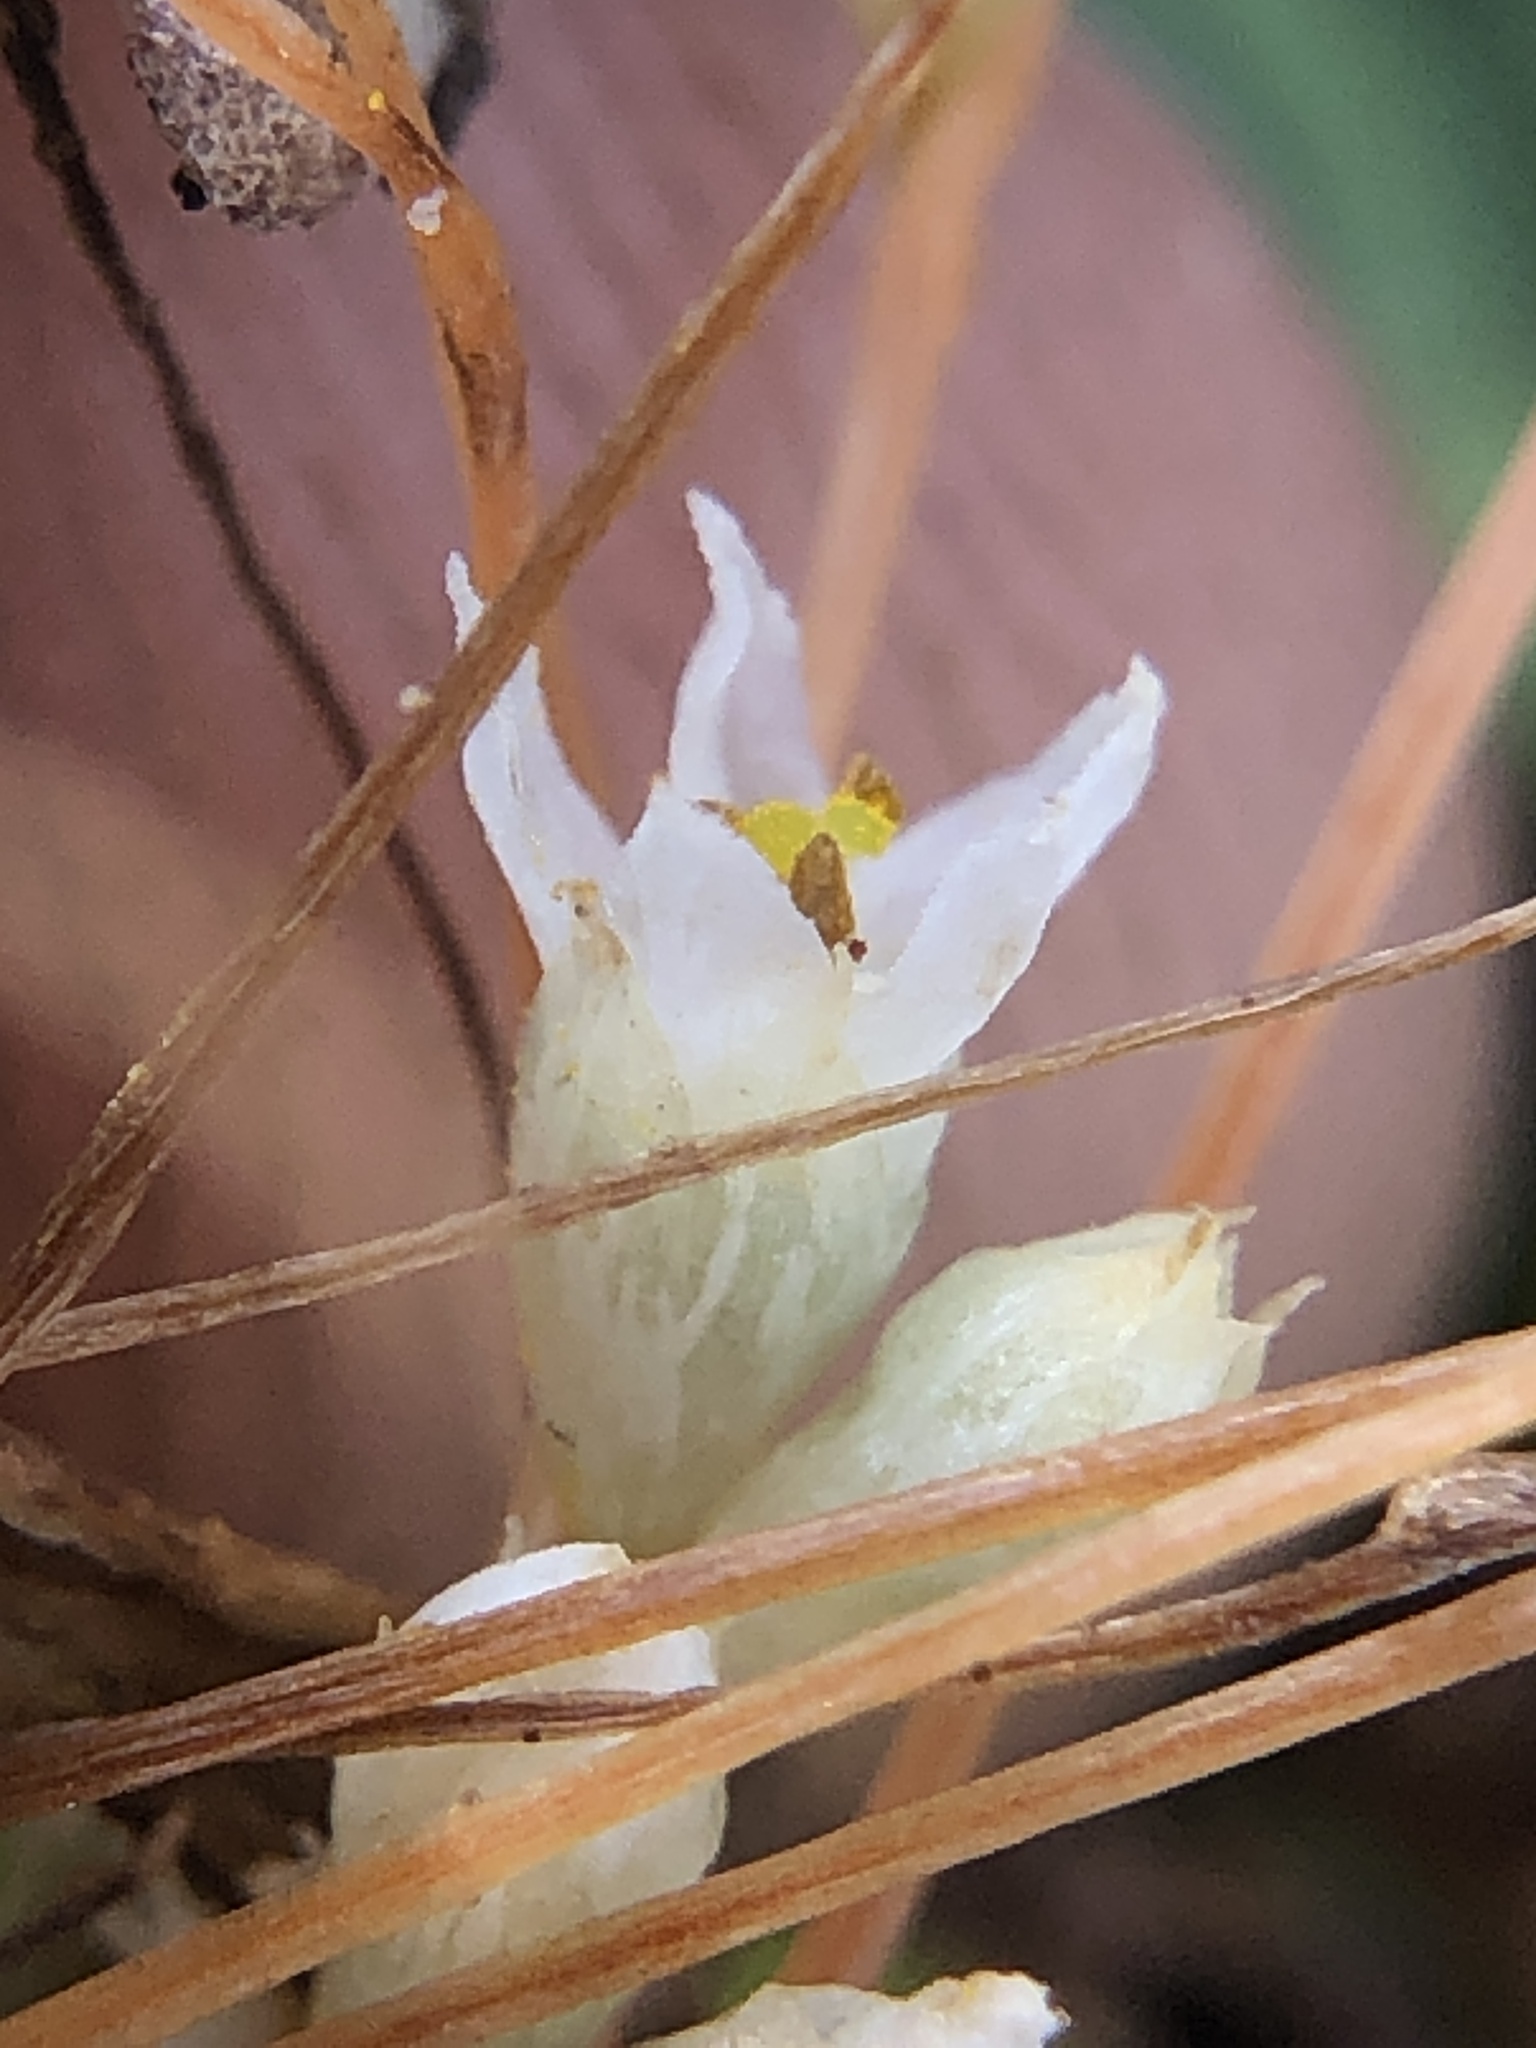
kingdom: Plantae
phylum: Tracheophyta
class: Magnoliopsida
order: Solanales
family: Convolvulaceae
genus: Cuscuta
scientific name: Cuscuta pacifica
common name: Large saltmarsh dodder
